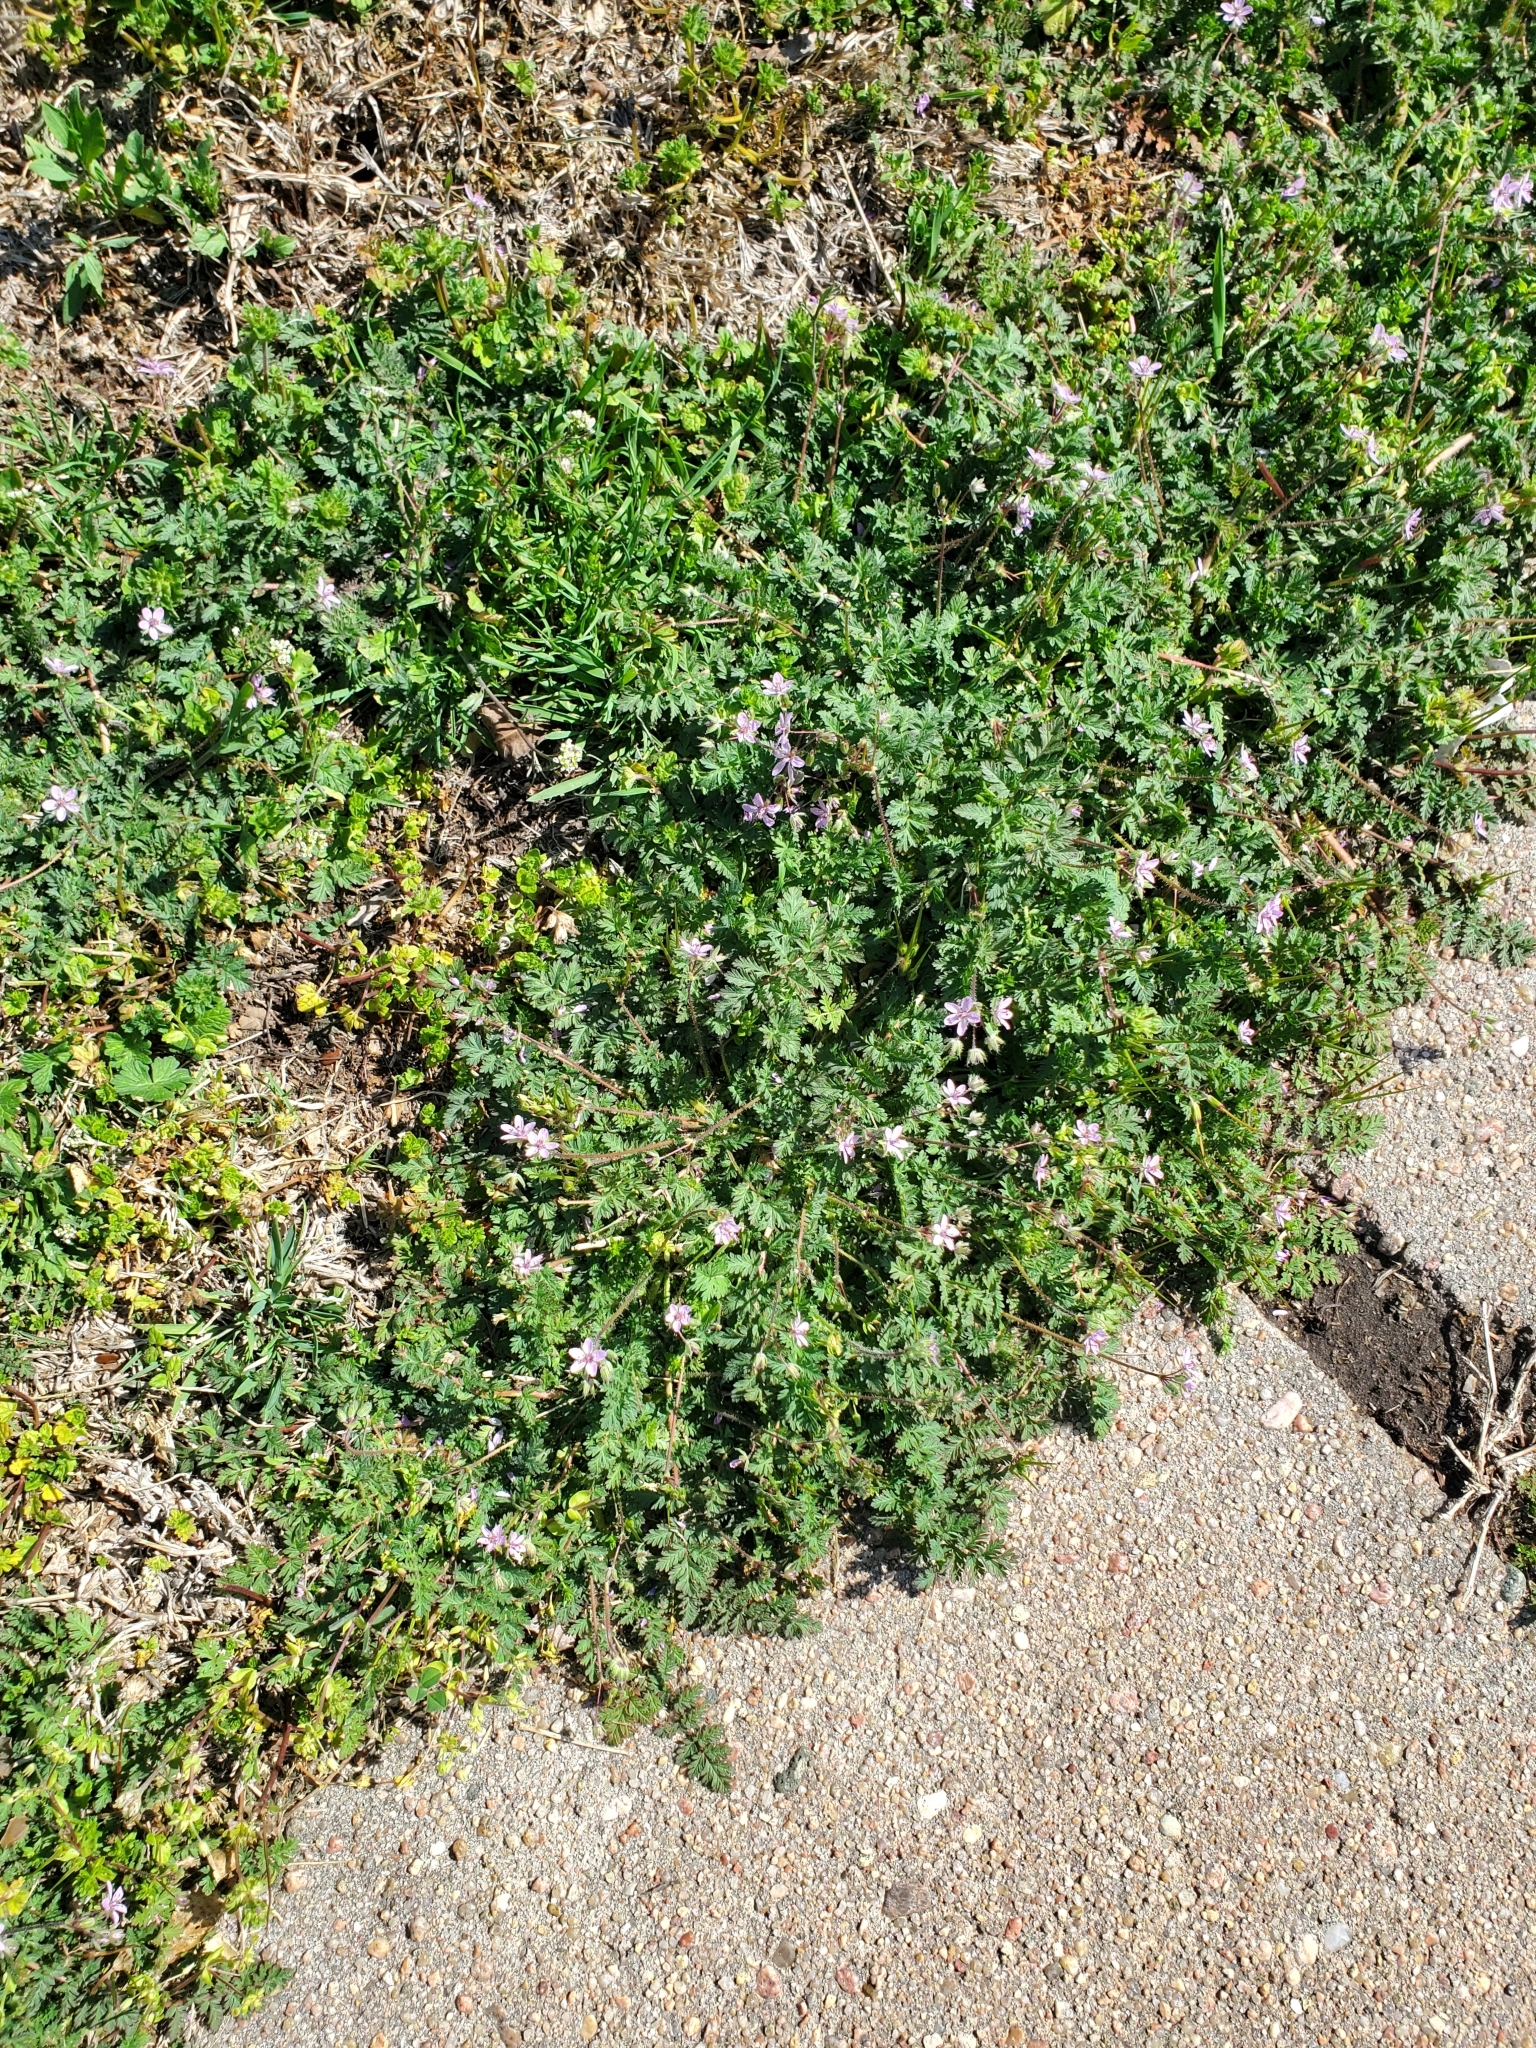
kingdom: Plantae
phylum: Tracheophyta
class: Magnoliopsida
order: Geraniales
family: Geraniaceae
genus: Erodium
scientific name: Erodium cicutarium
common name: Common stork's-bill
